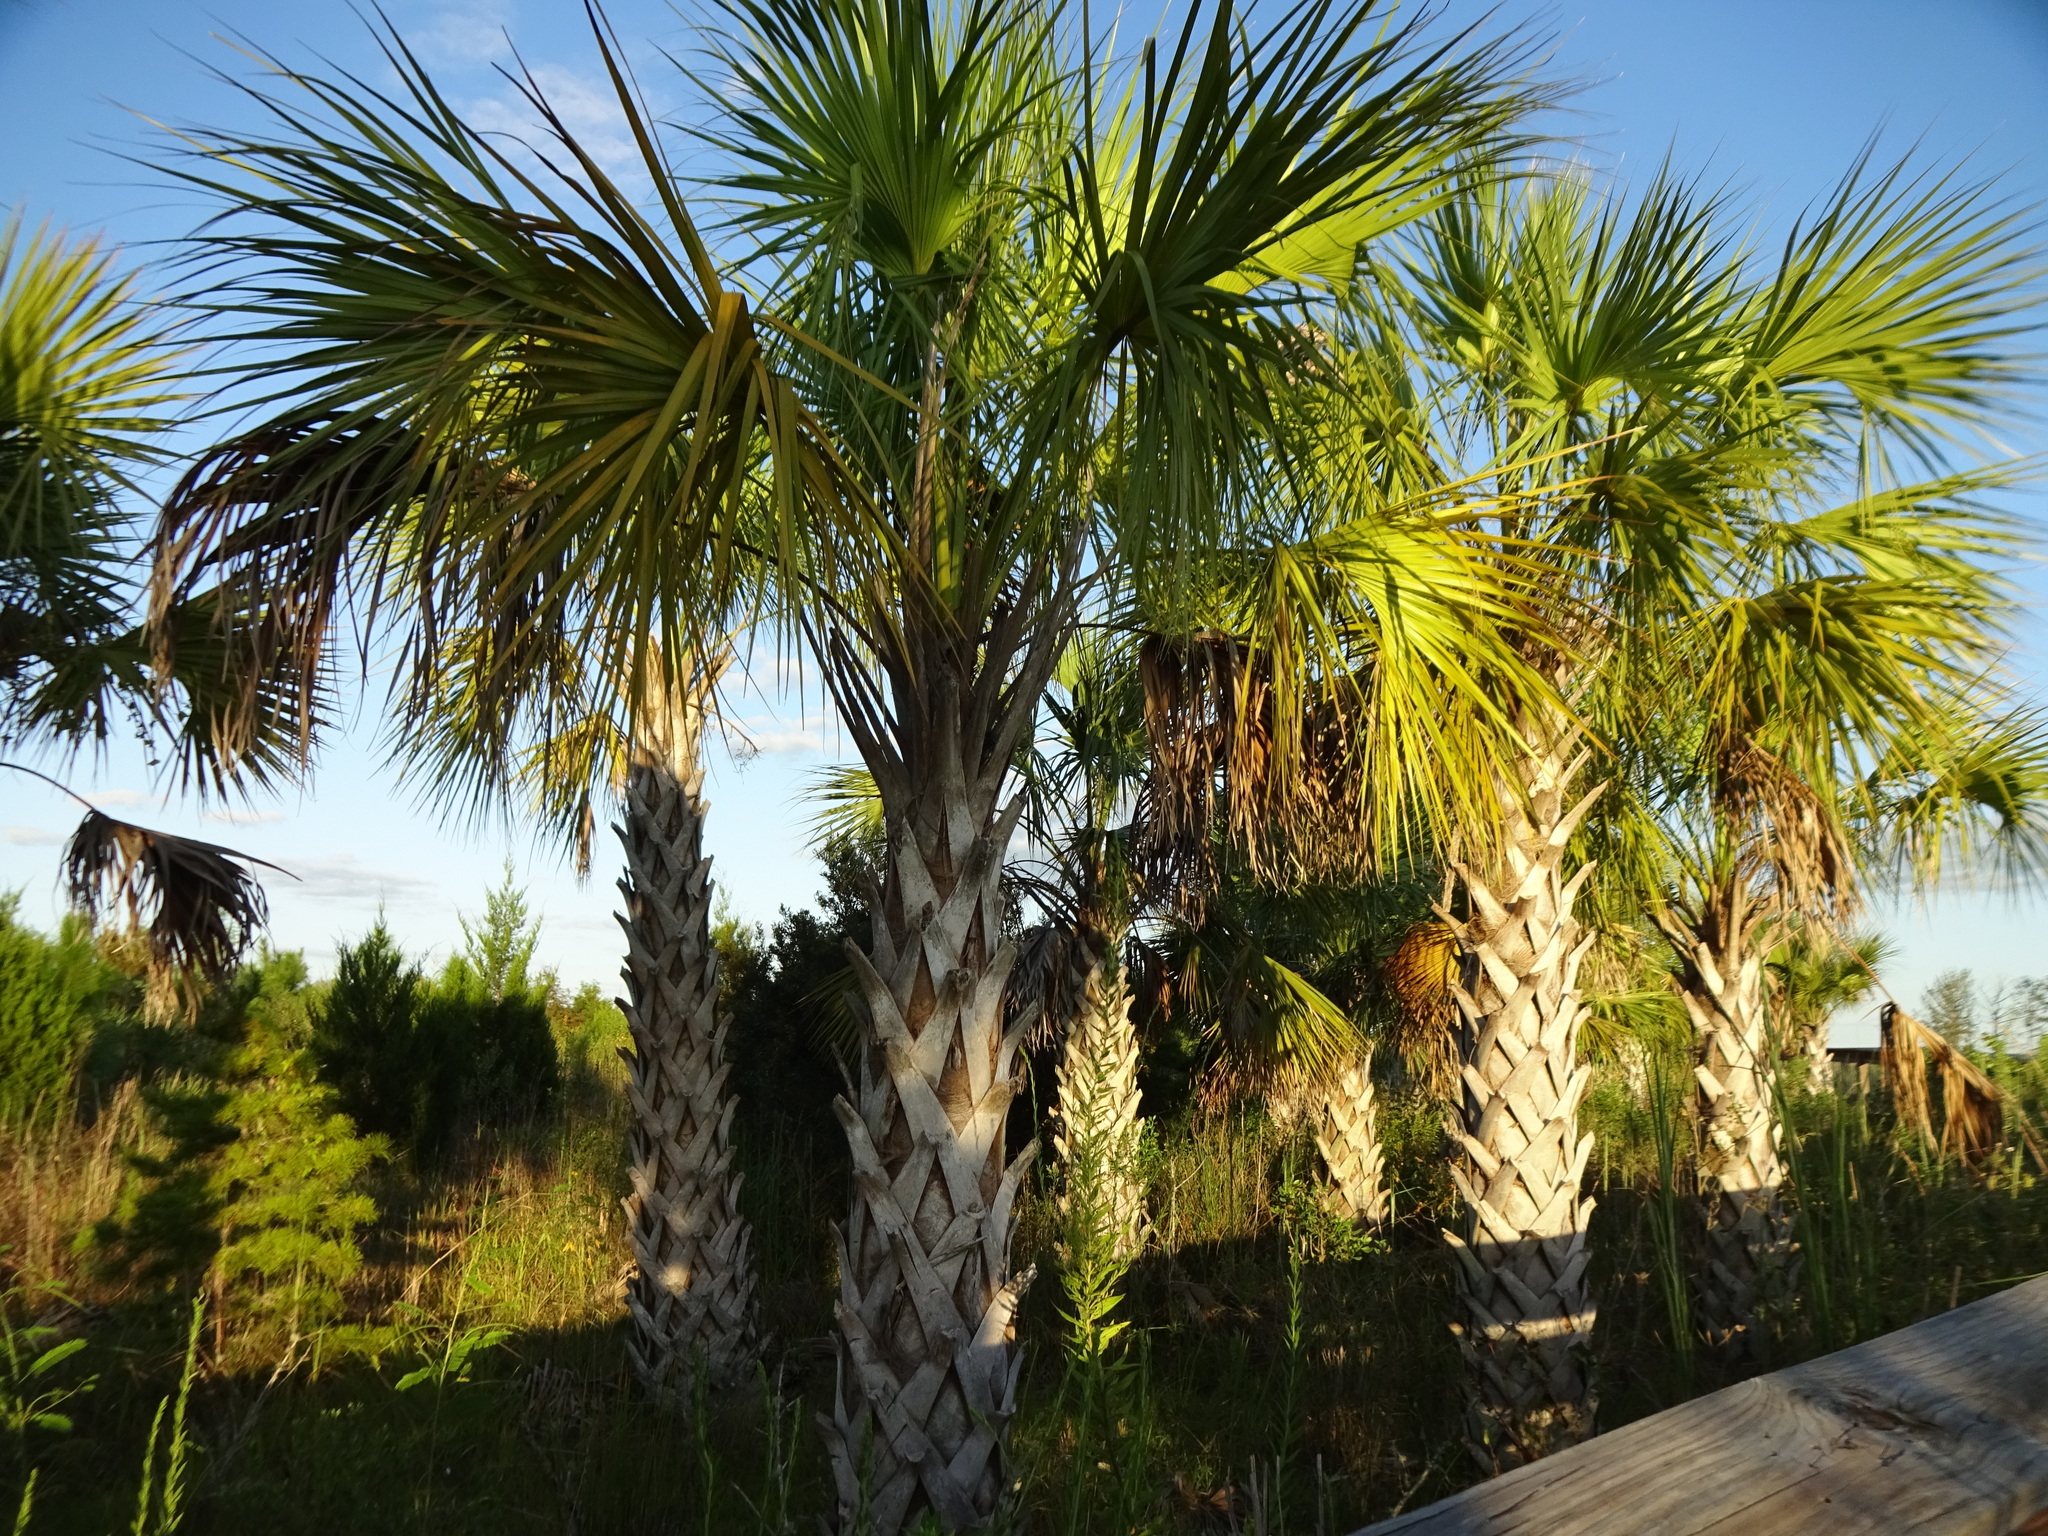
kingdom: Plantae
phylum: Tracheophyta
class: Liliopsida
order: Arecales
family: Arecaceae
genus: Sabal
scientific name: Sabal palmetto
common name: Blue palmetto
